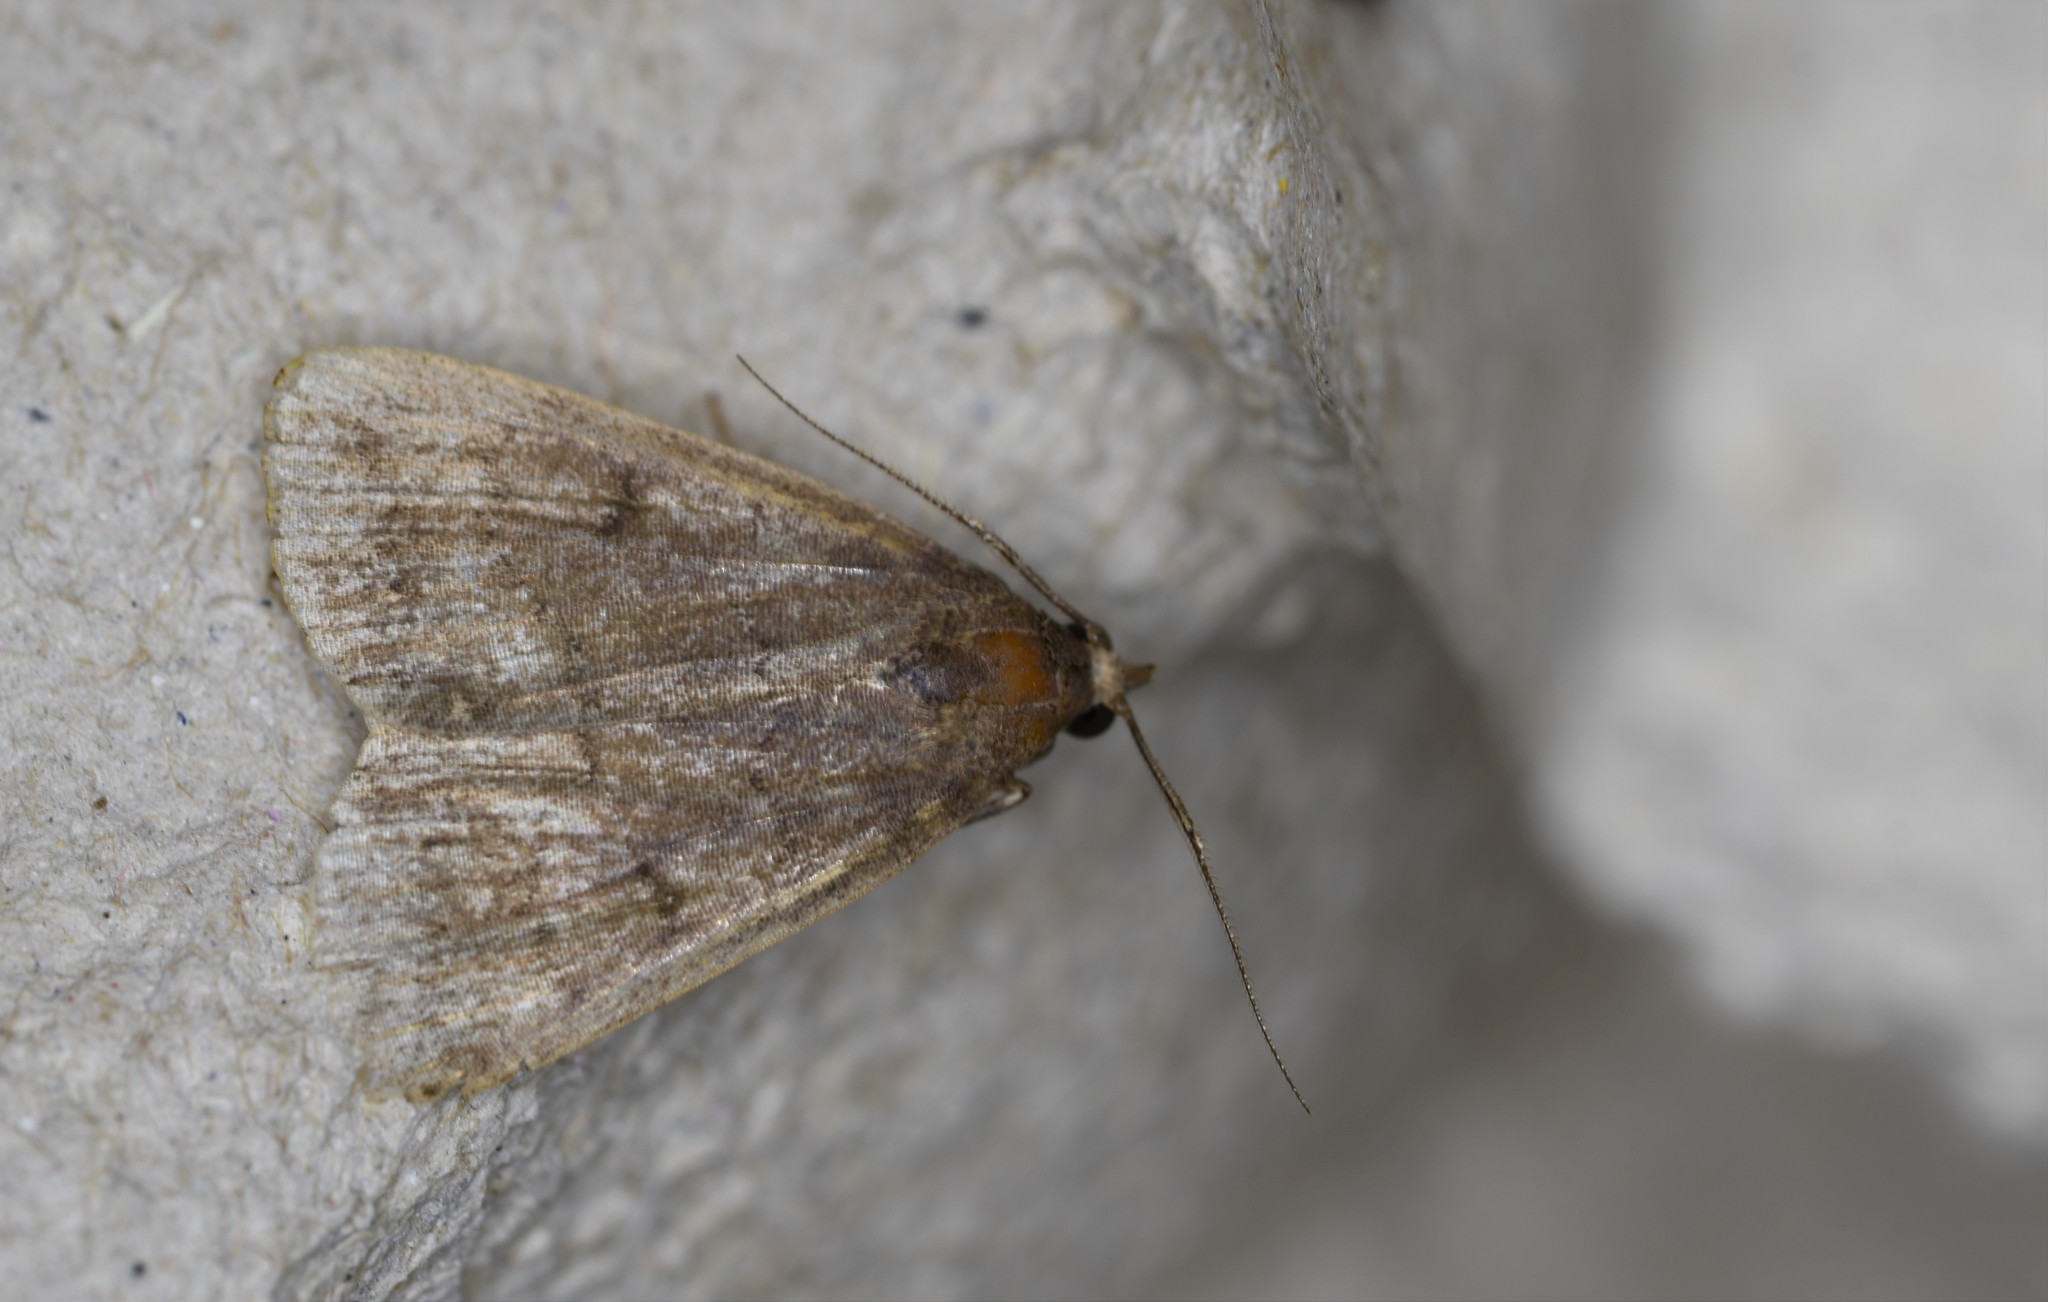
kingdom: Animalia
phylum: Arthropoda
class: Insecta
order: Lepidoptera
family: Erebidae
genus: Nodaria
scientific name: Nodaria nodosalis
